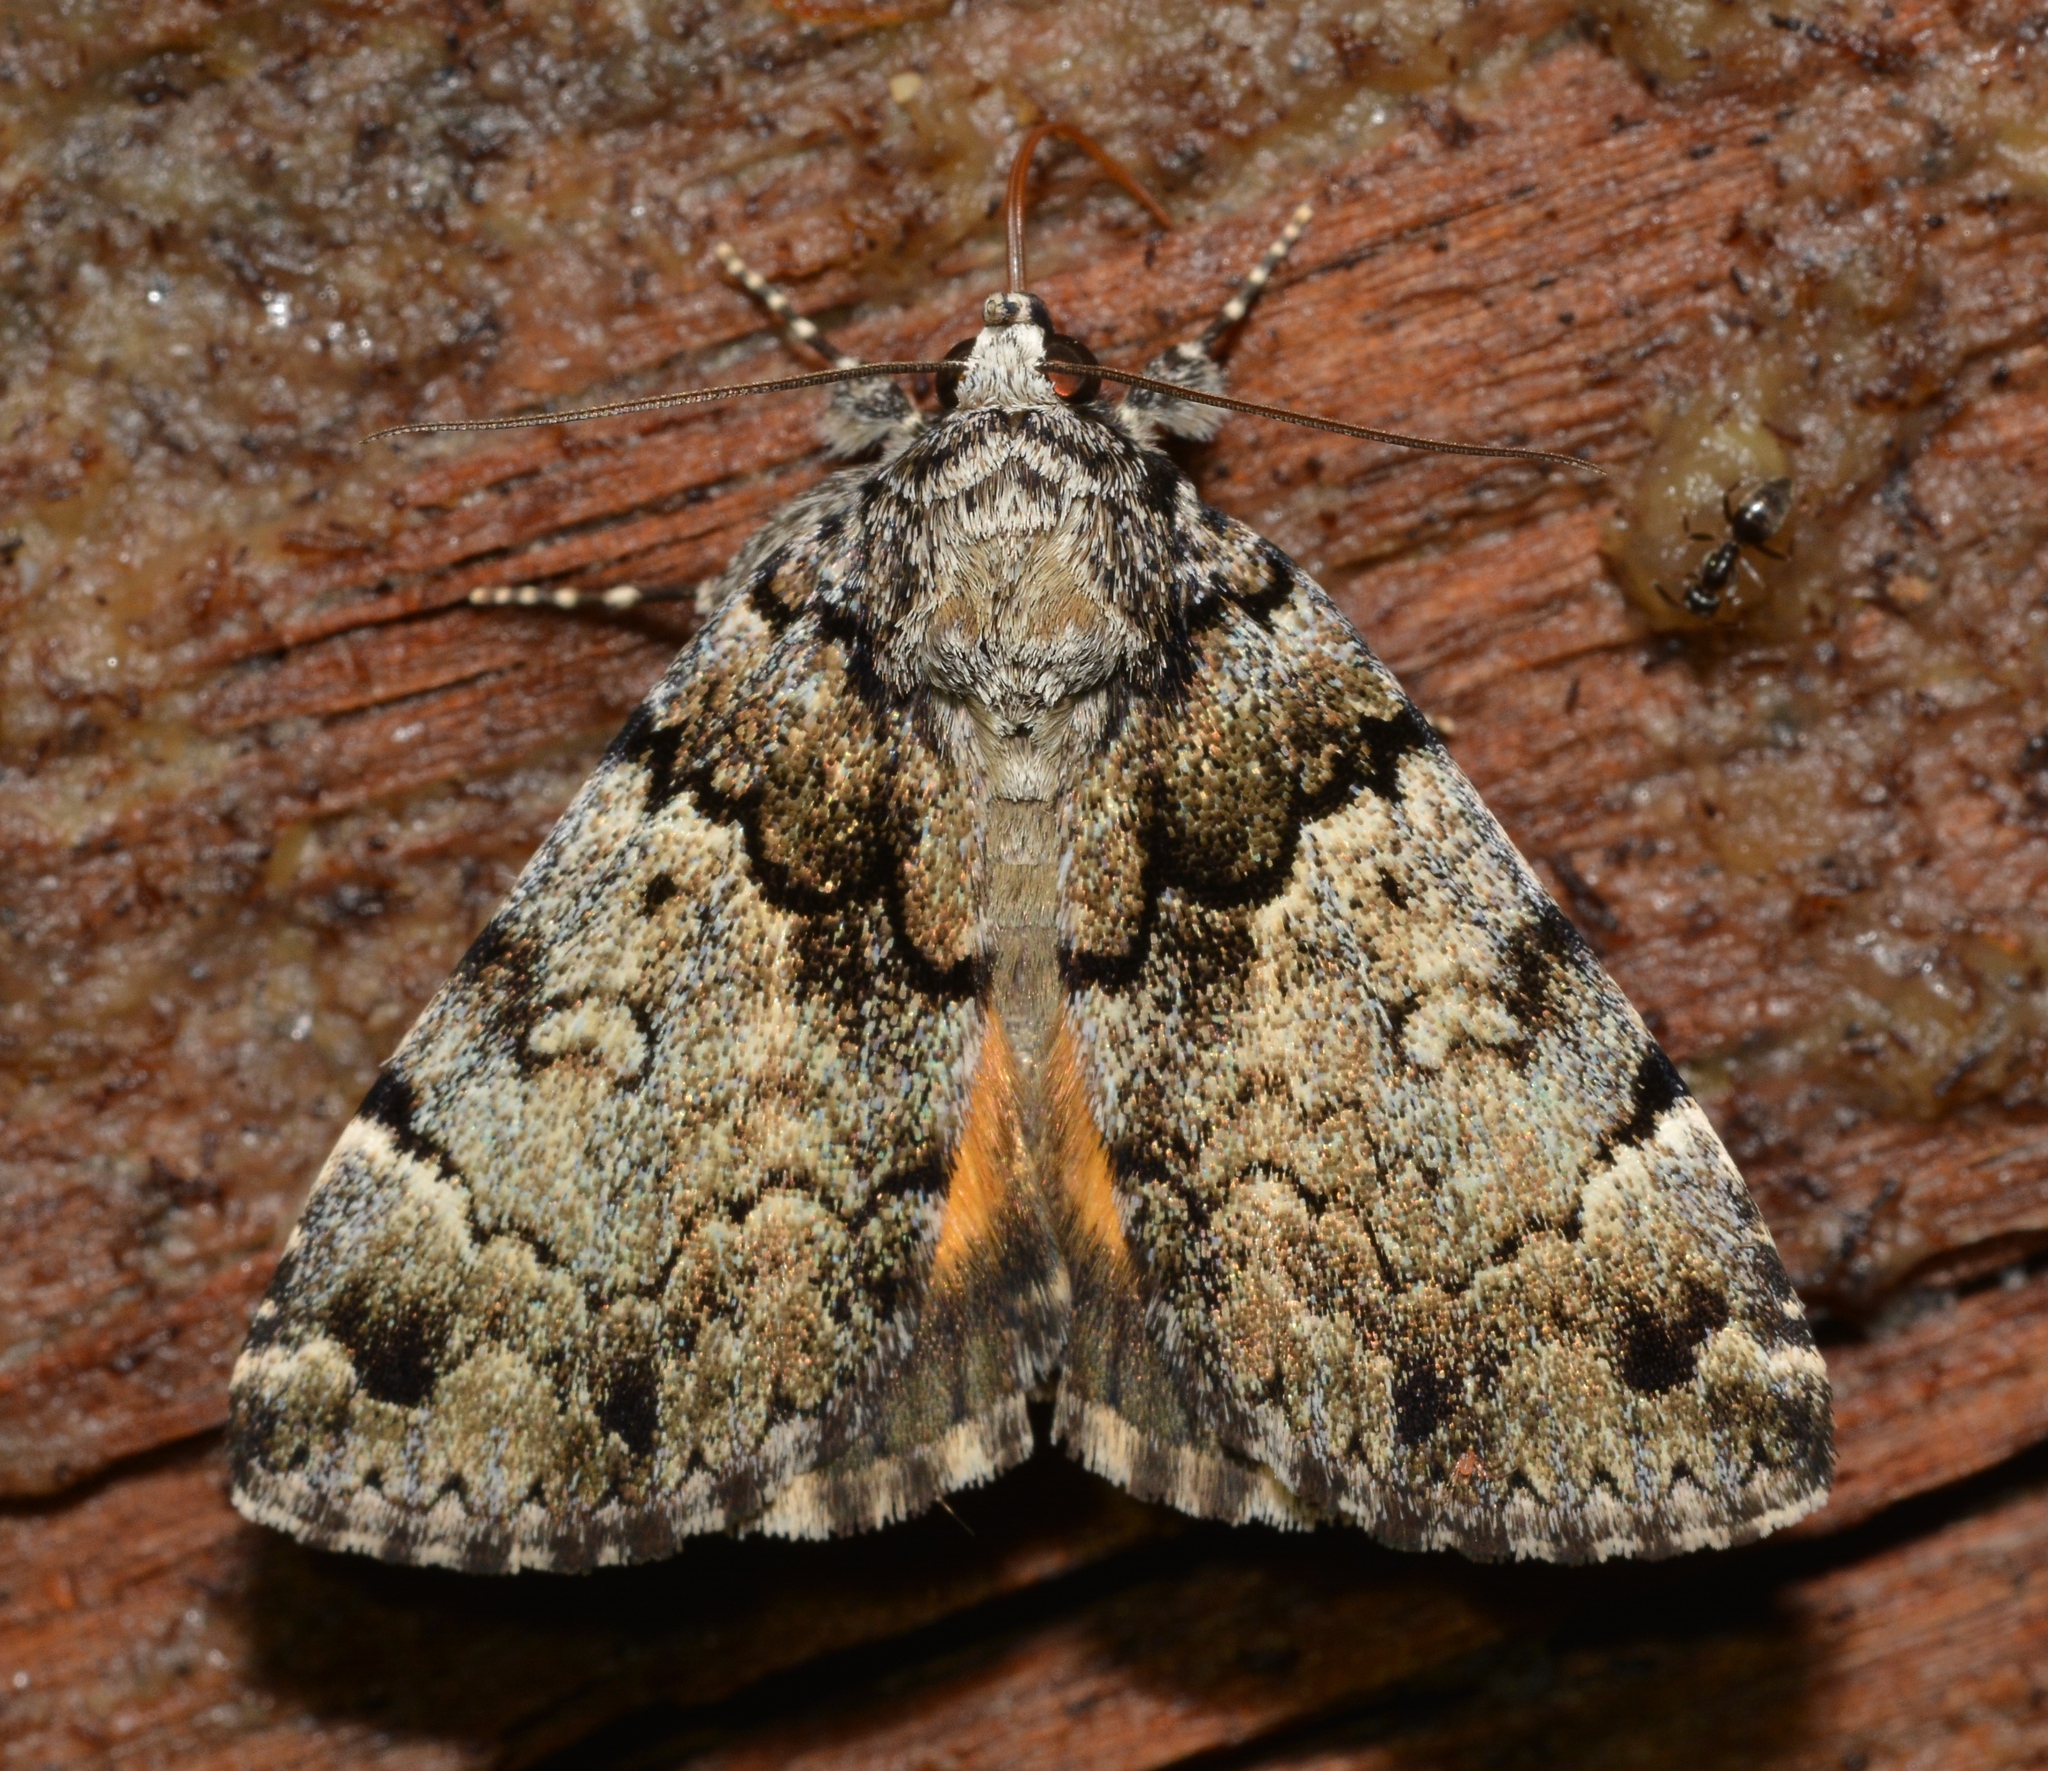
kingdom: Animalia
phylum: Arthropoda
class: Insecta
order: Lepidoptera
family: Erebidae
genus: Allotria
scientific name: Allotria elonympha
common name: False underwing
